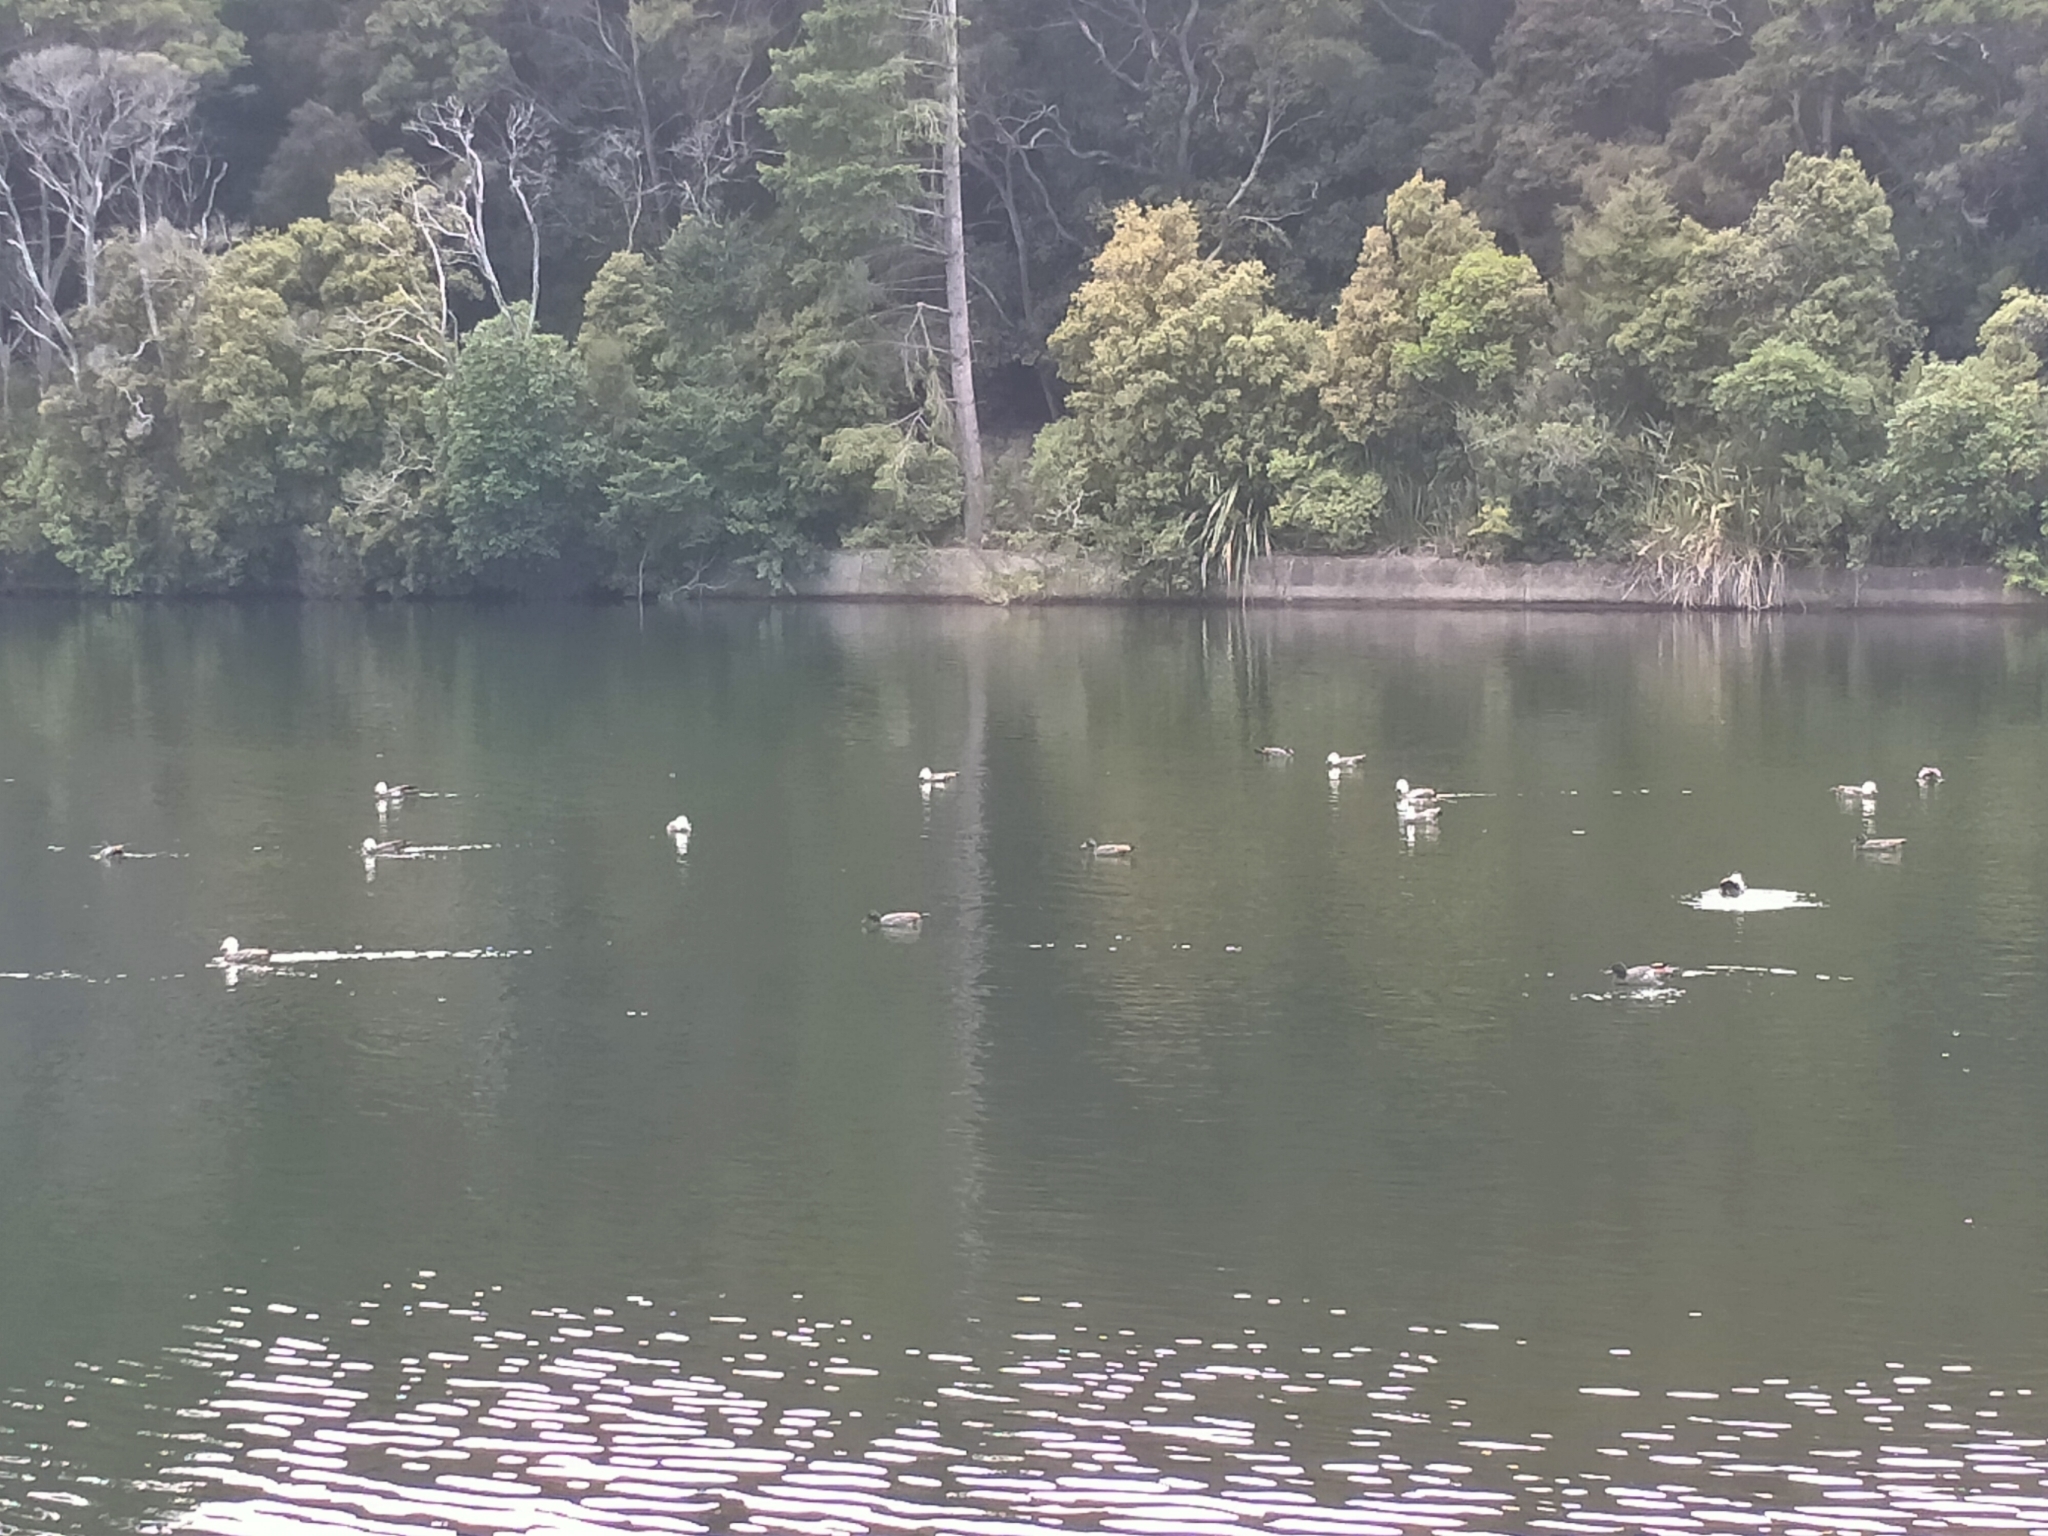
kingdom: Animalia
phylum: Chordata
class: Aves
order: Anseriformes
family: Anatidae
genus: Tadorna
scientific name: Tadorna variegata
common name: Paradise shelduck
